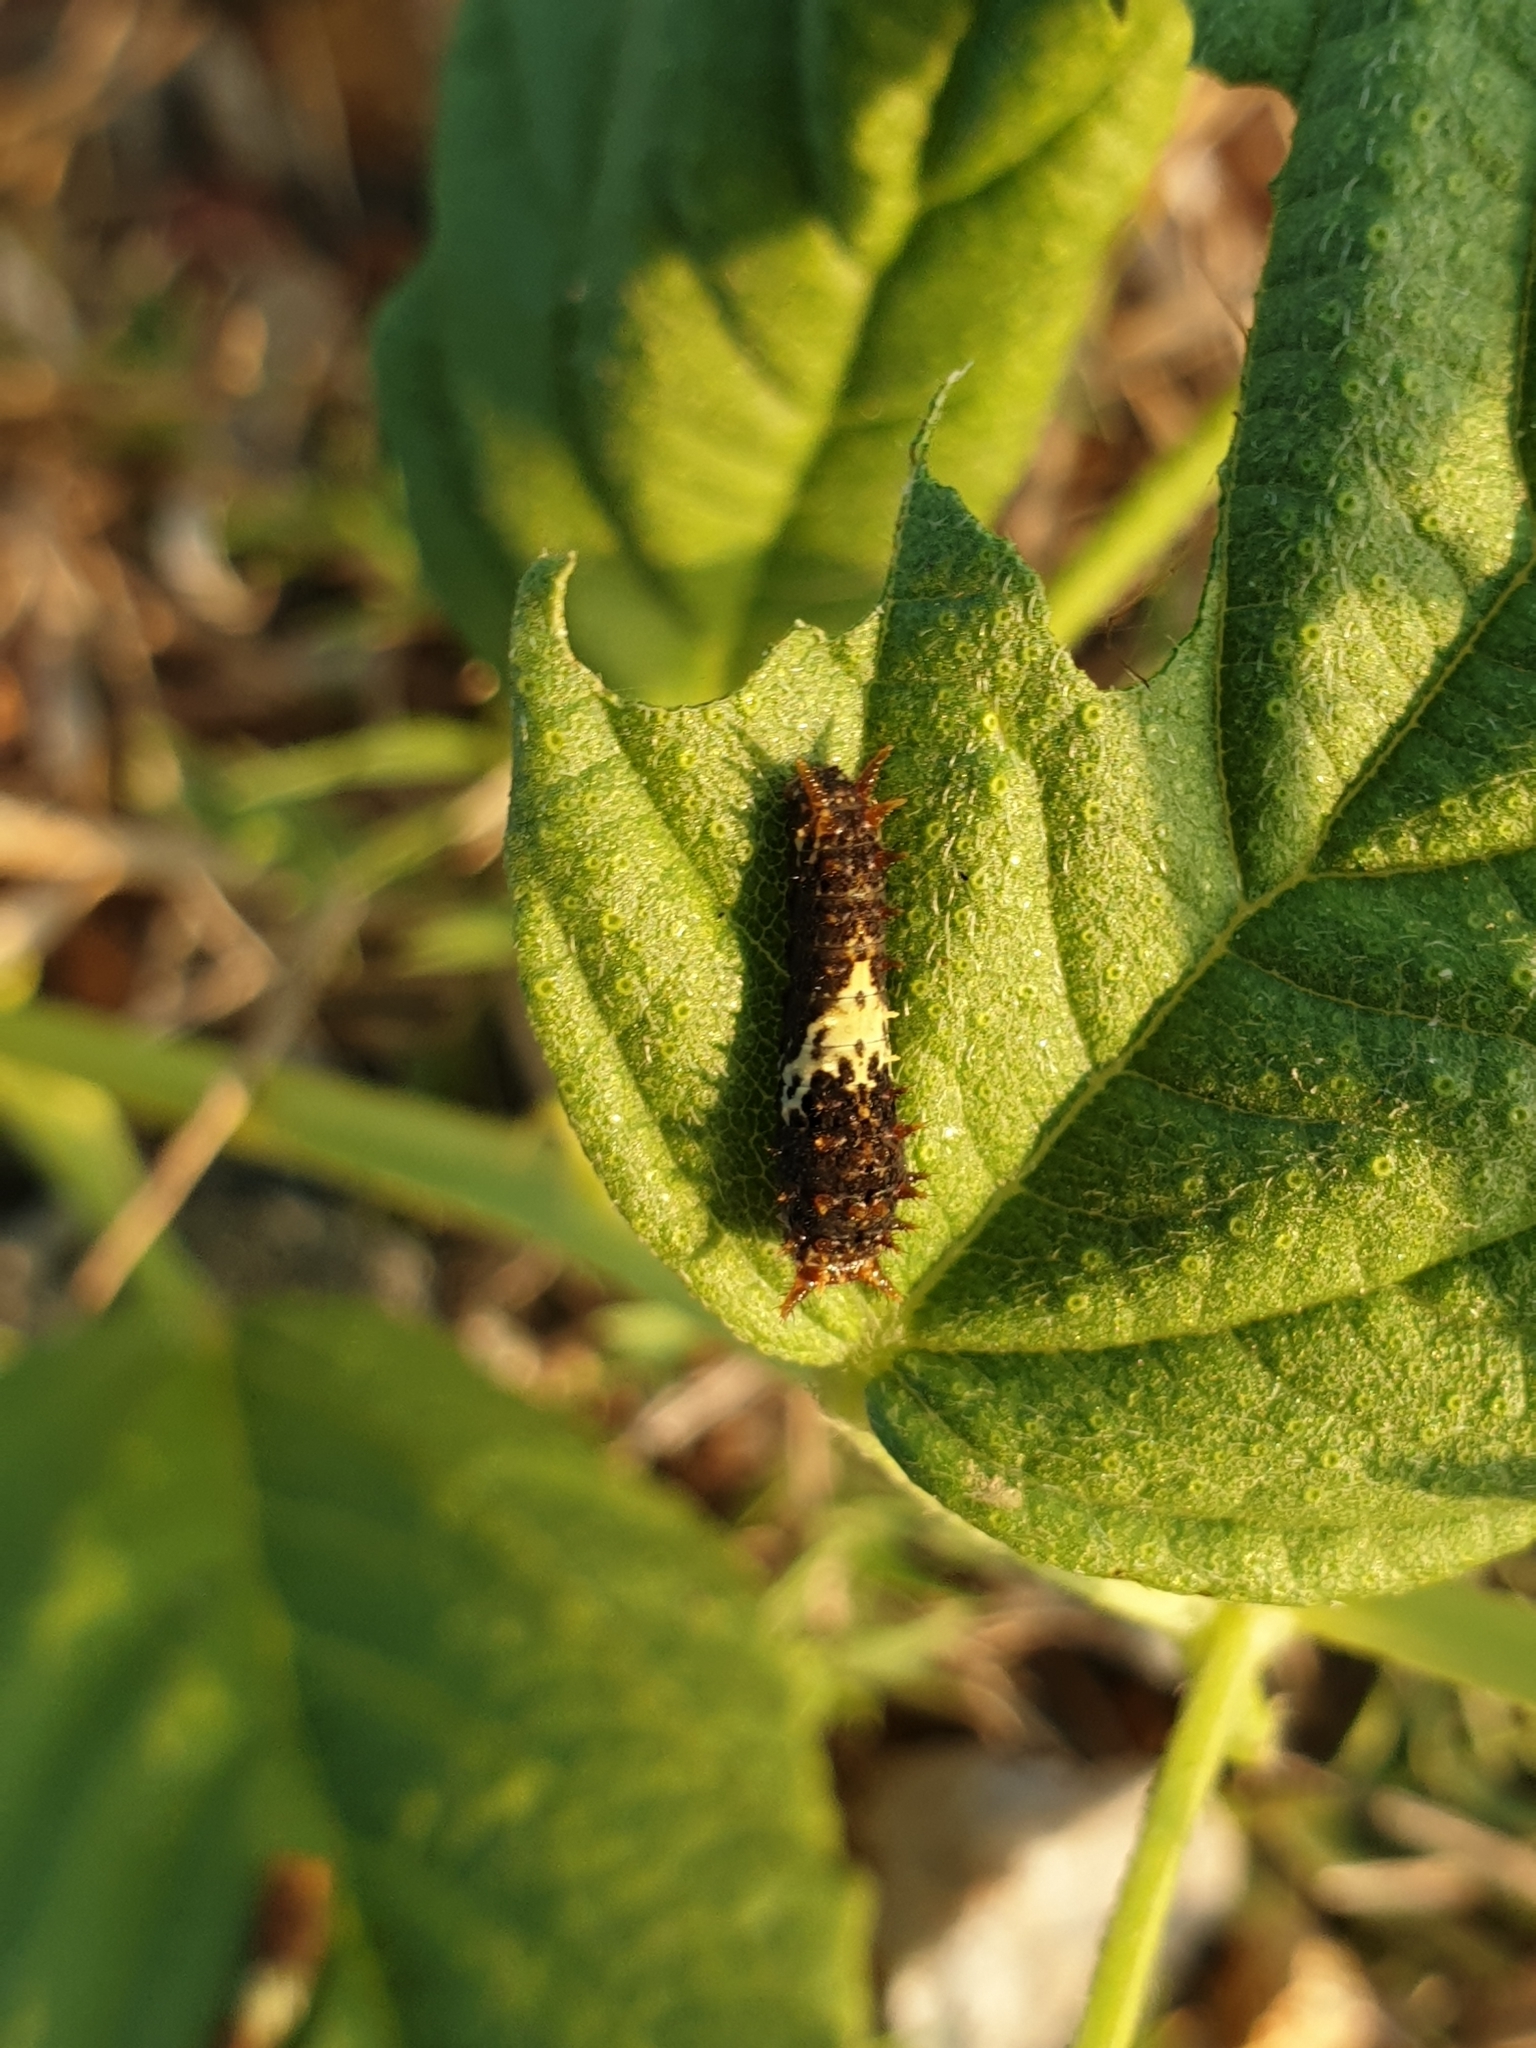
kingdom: Animalia
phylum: Arthropoda
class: Insecta
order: Lepidoptera
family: Papilionidae
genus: Papilio
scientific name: Papilio demoleus
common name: Lime butterfly
